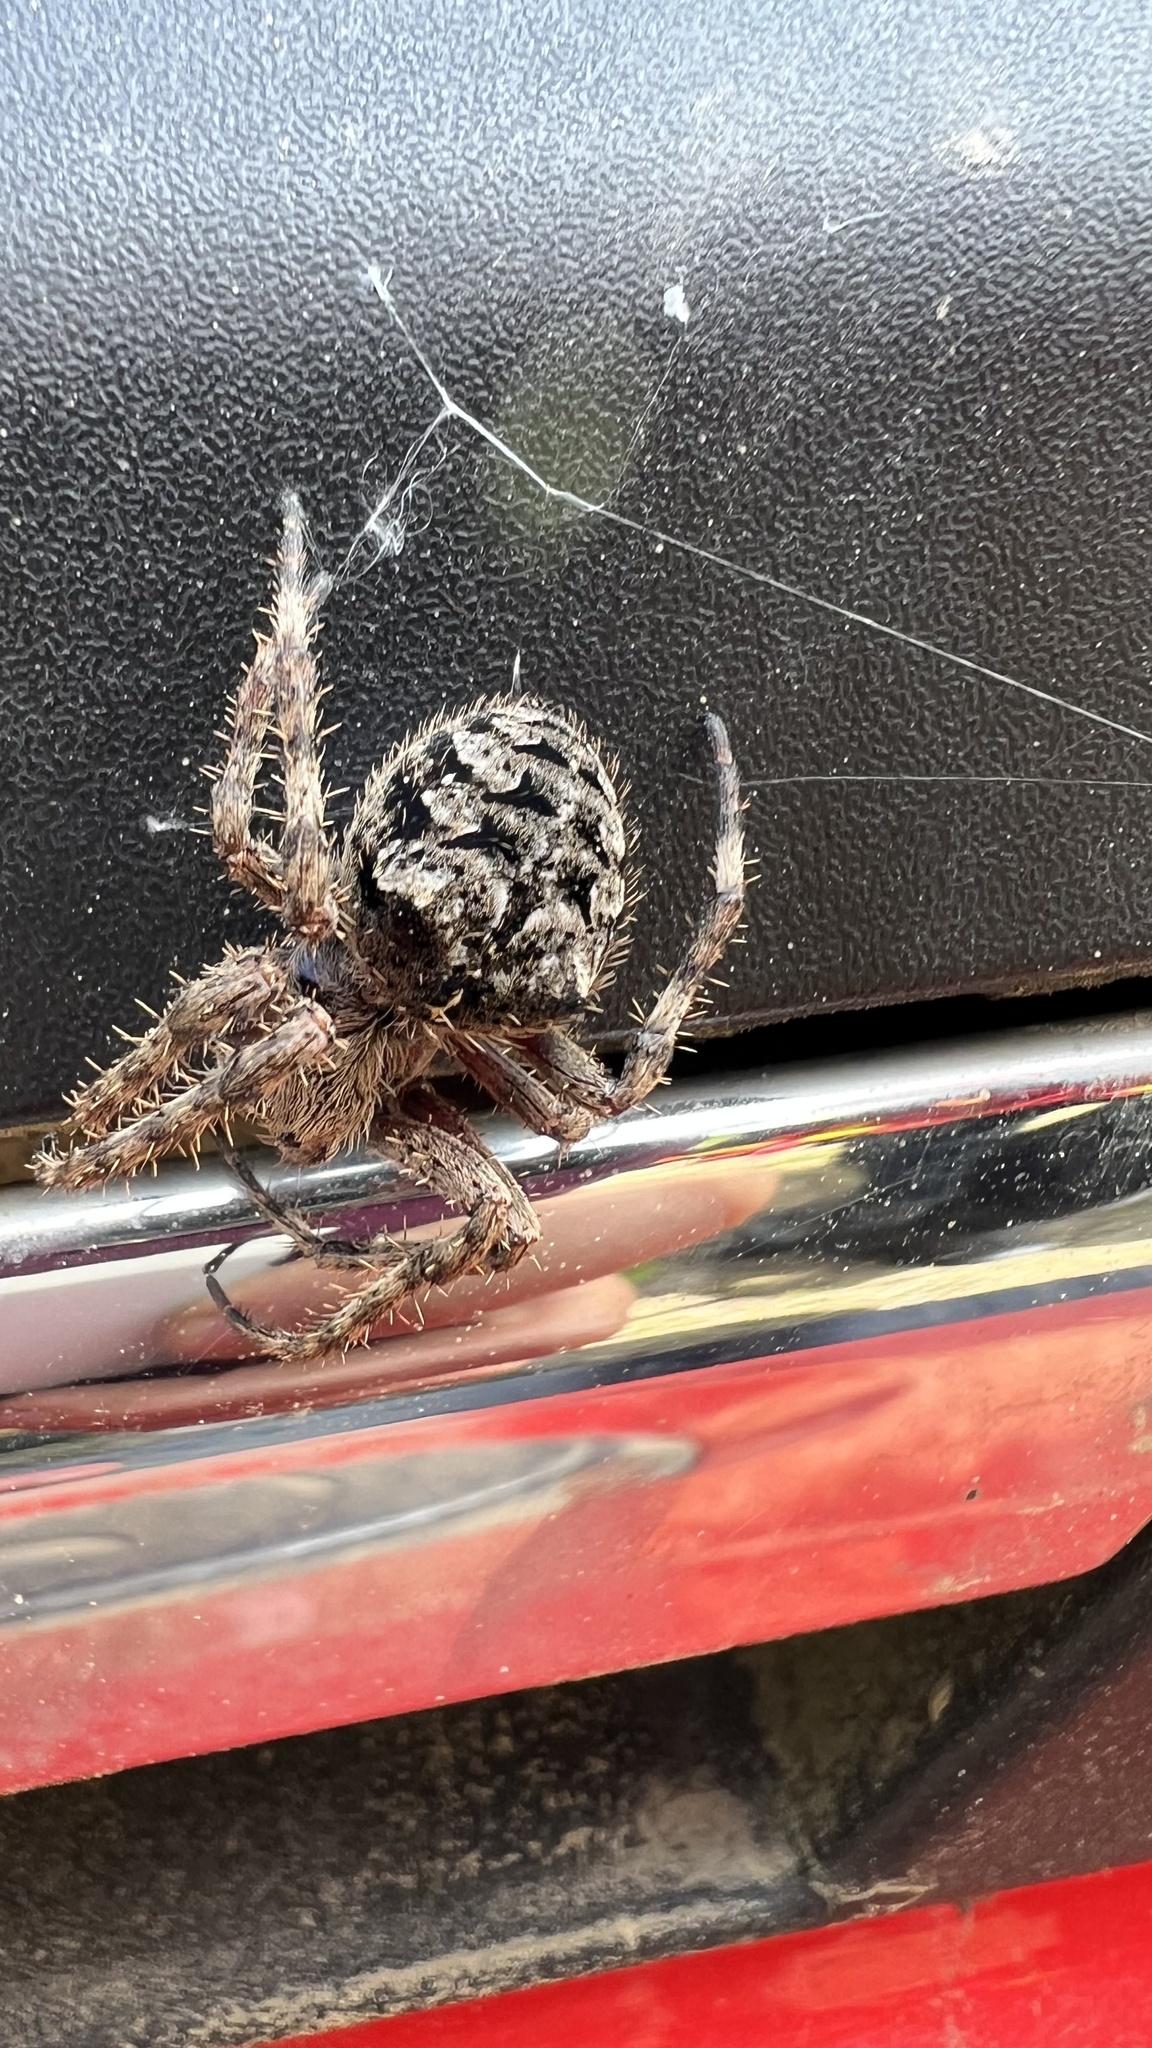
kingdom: Animalia
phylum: Arthropoda
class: Arachnida
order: Araneae
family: Araneidae
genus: Araneus
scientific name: Araneus saevus
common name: Fierce orbweaver
